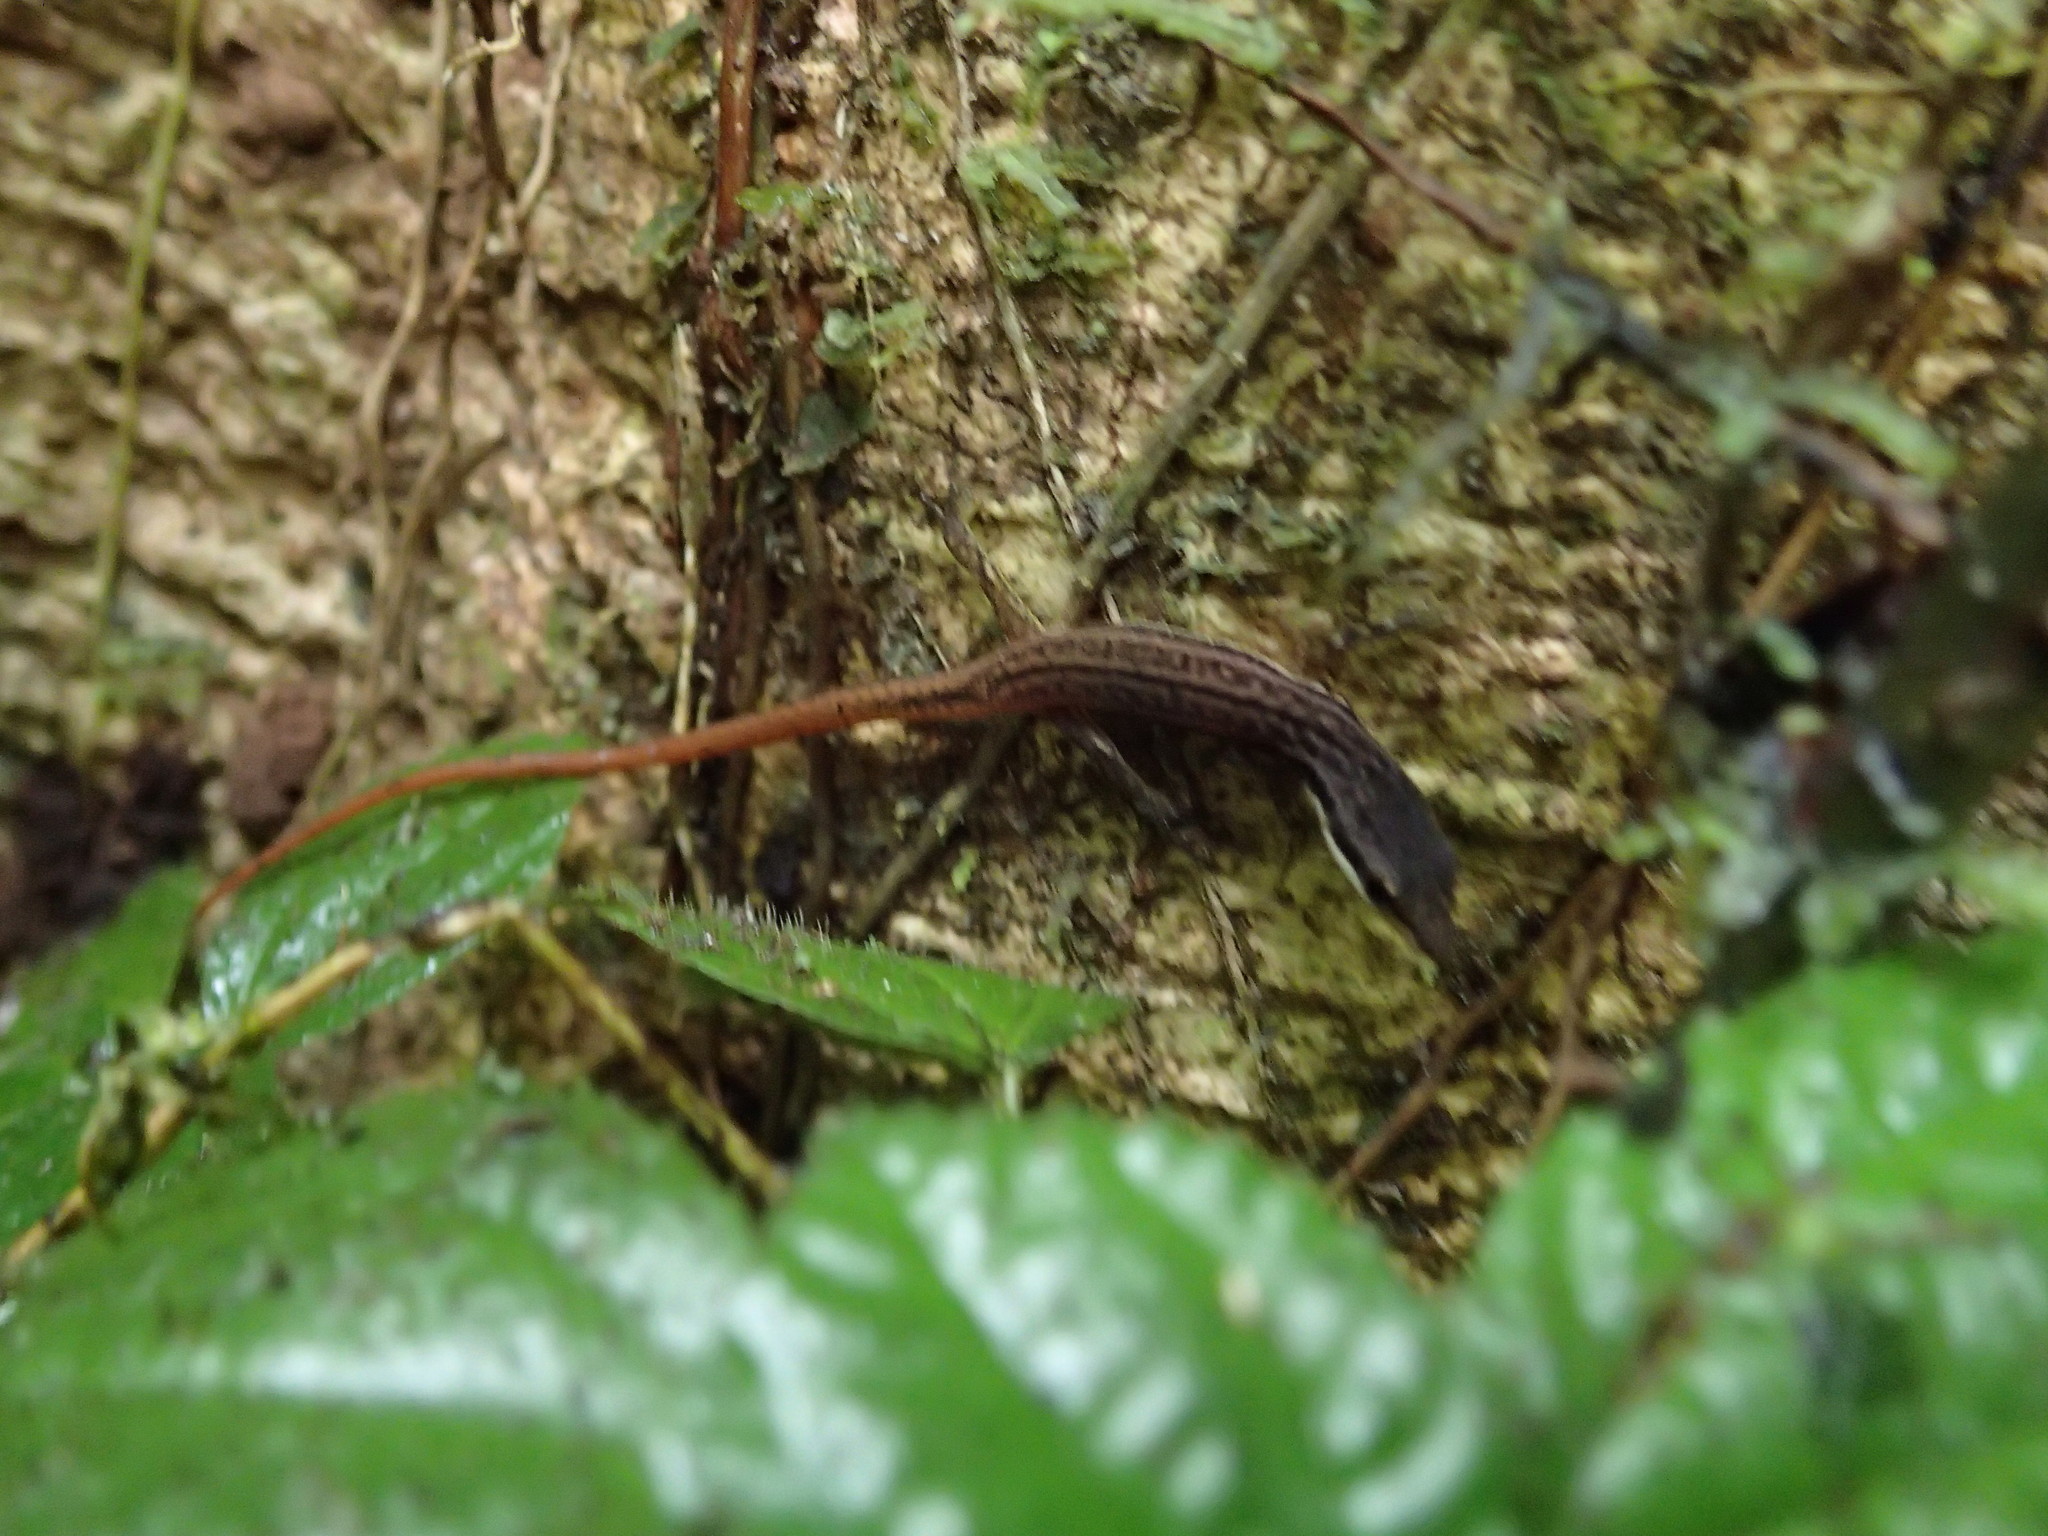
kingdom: Animalia
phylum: Chordata
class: Squamata
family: Gymnophthalmidae
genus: Cercosaura
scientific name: Cercosaura argulus
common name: White-lipped cercosaura
